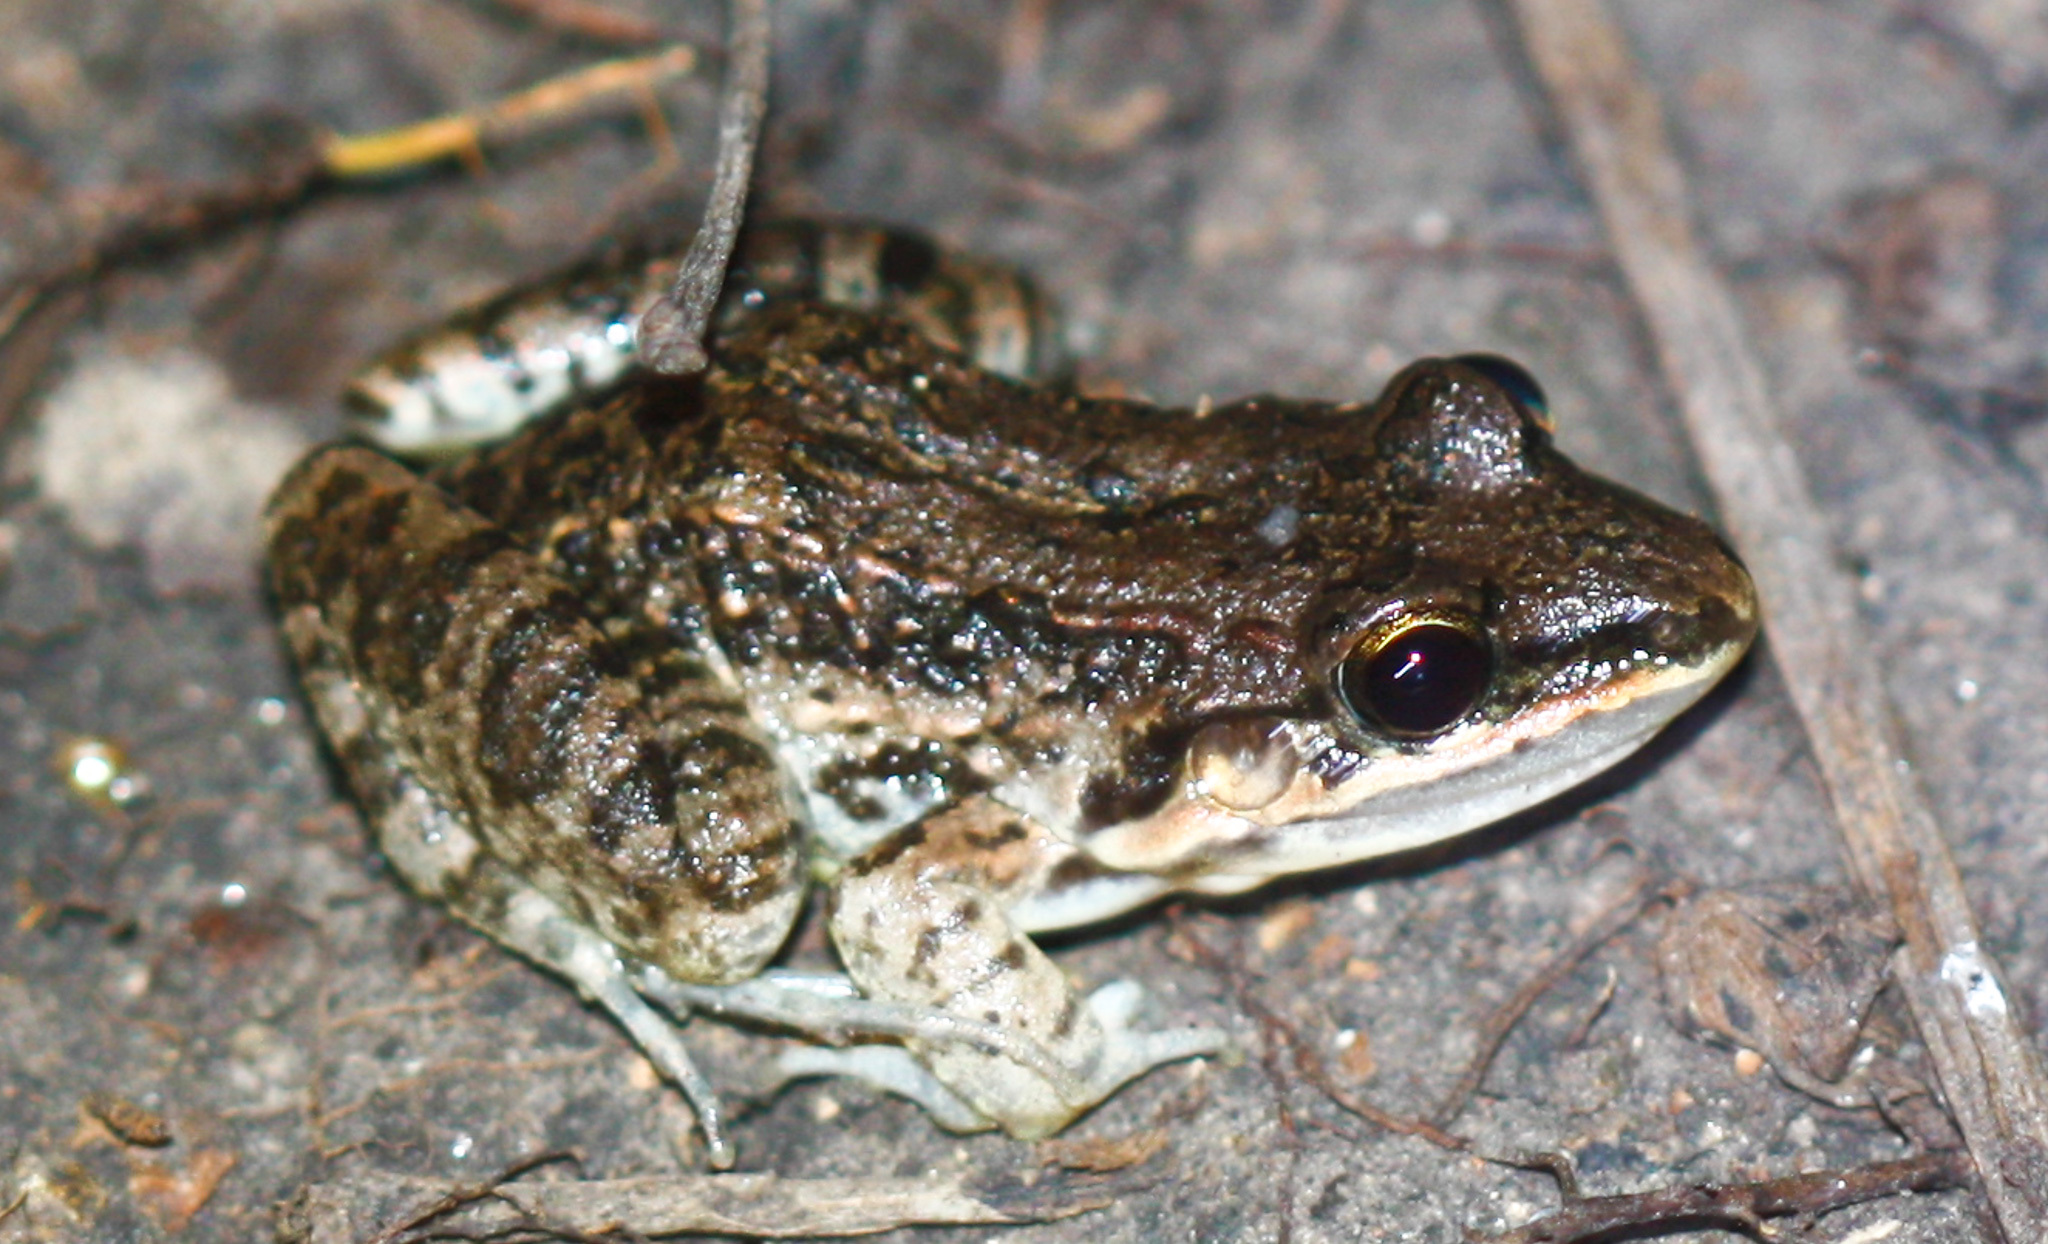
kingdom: Animalia
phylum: Chordata
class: Amphibia
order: Anura
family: Leptodactylidae
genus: Leptodactylus
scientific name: Leptodactylus fragilis
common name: Mexican white-lipped frog
